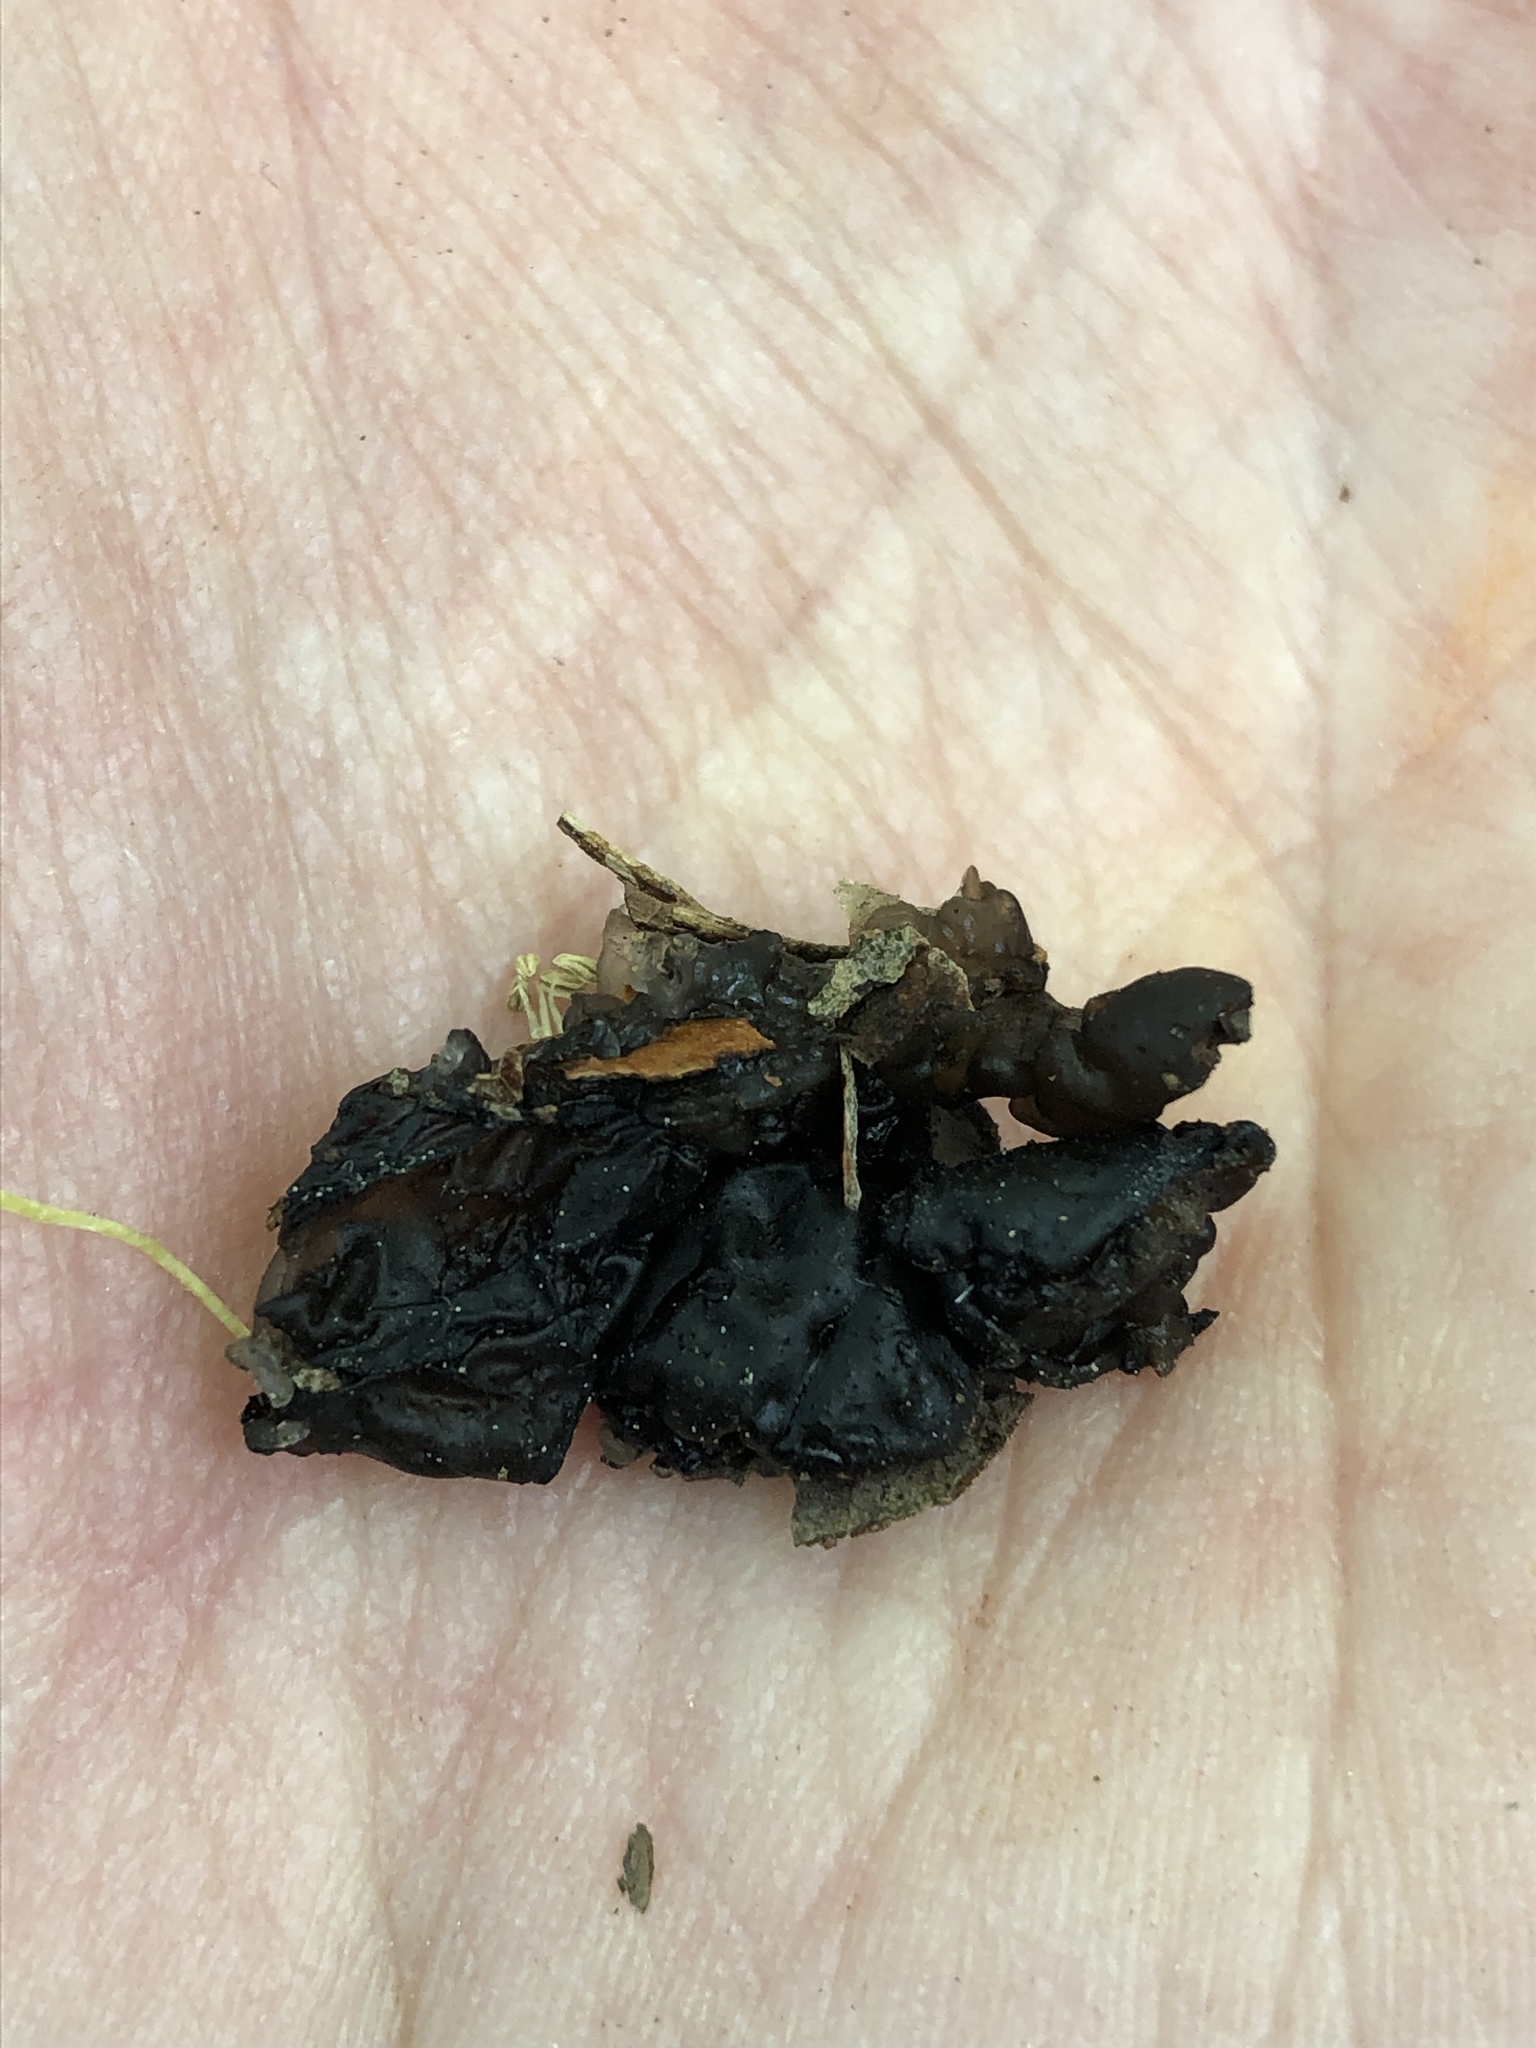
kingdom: Fungi
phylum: Basidiomycota
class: Agaricomycetes
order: Auriculariales
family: Auriculariaceae
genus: Exidia
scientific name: Exidia
